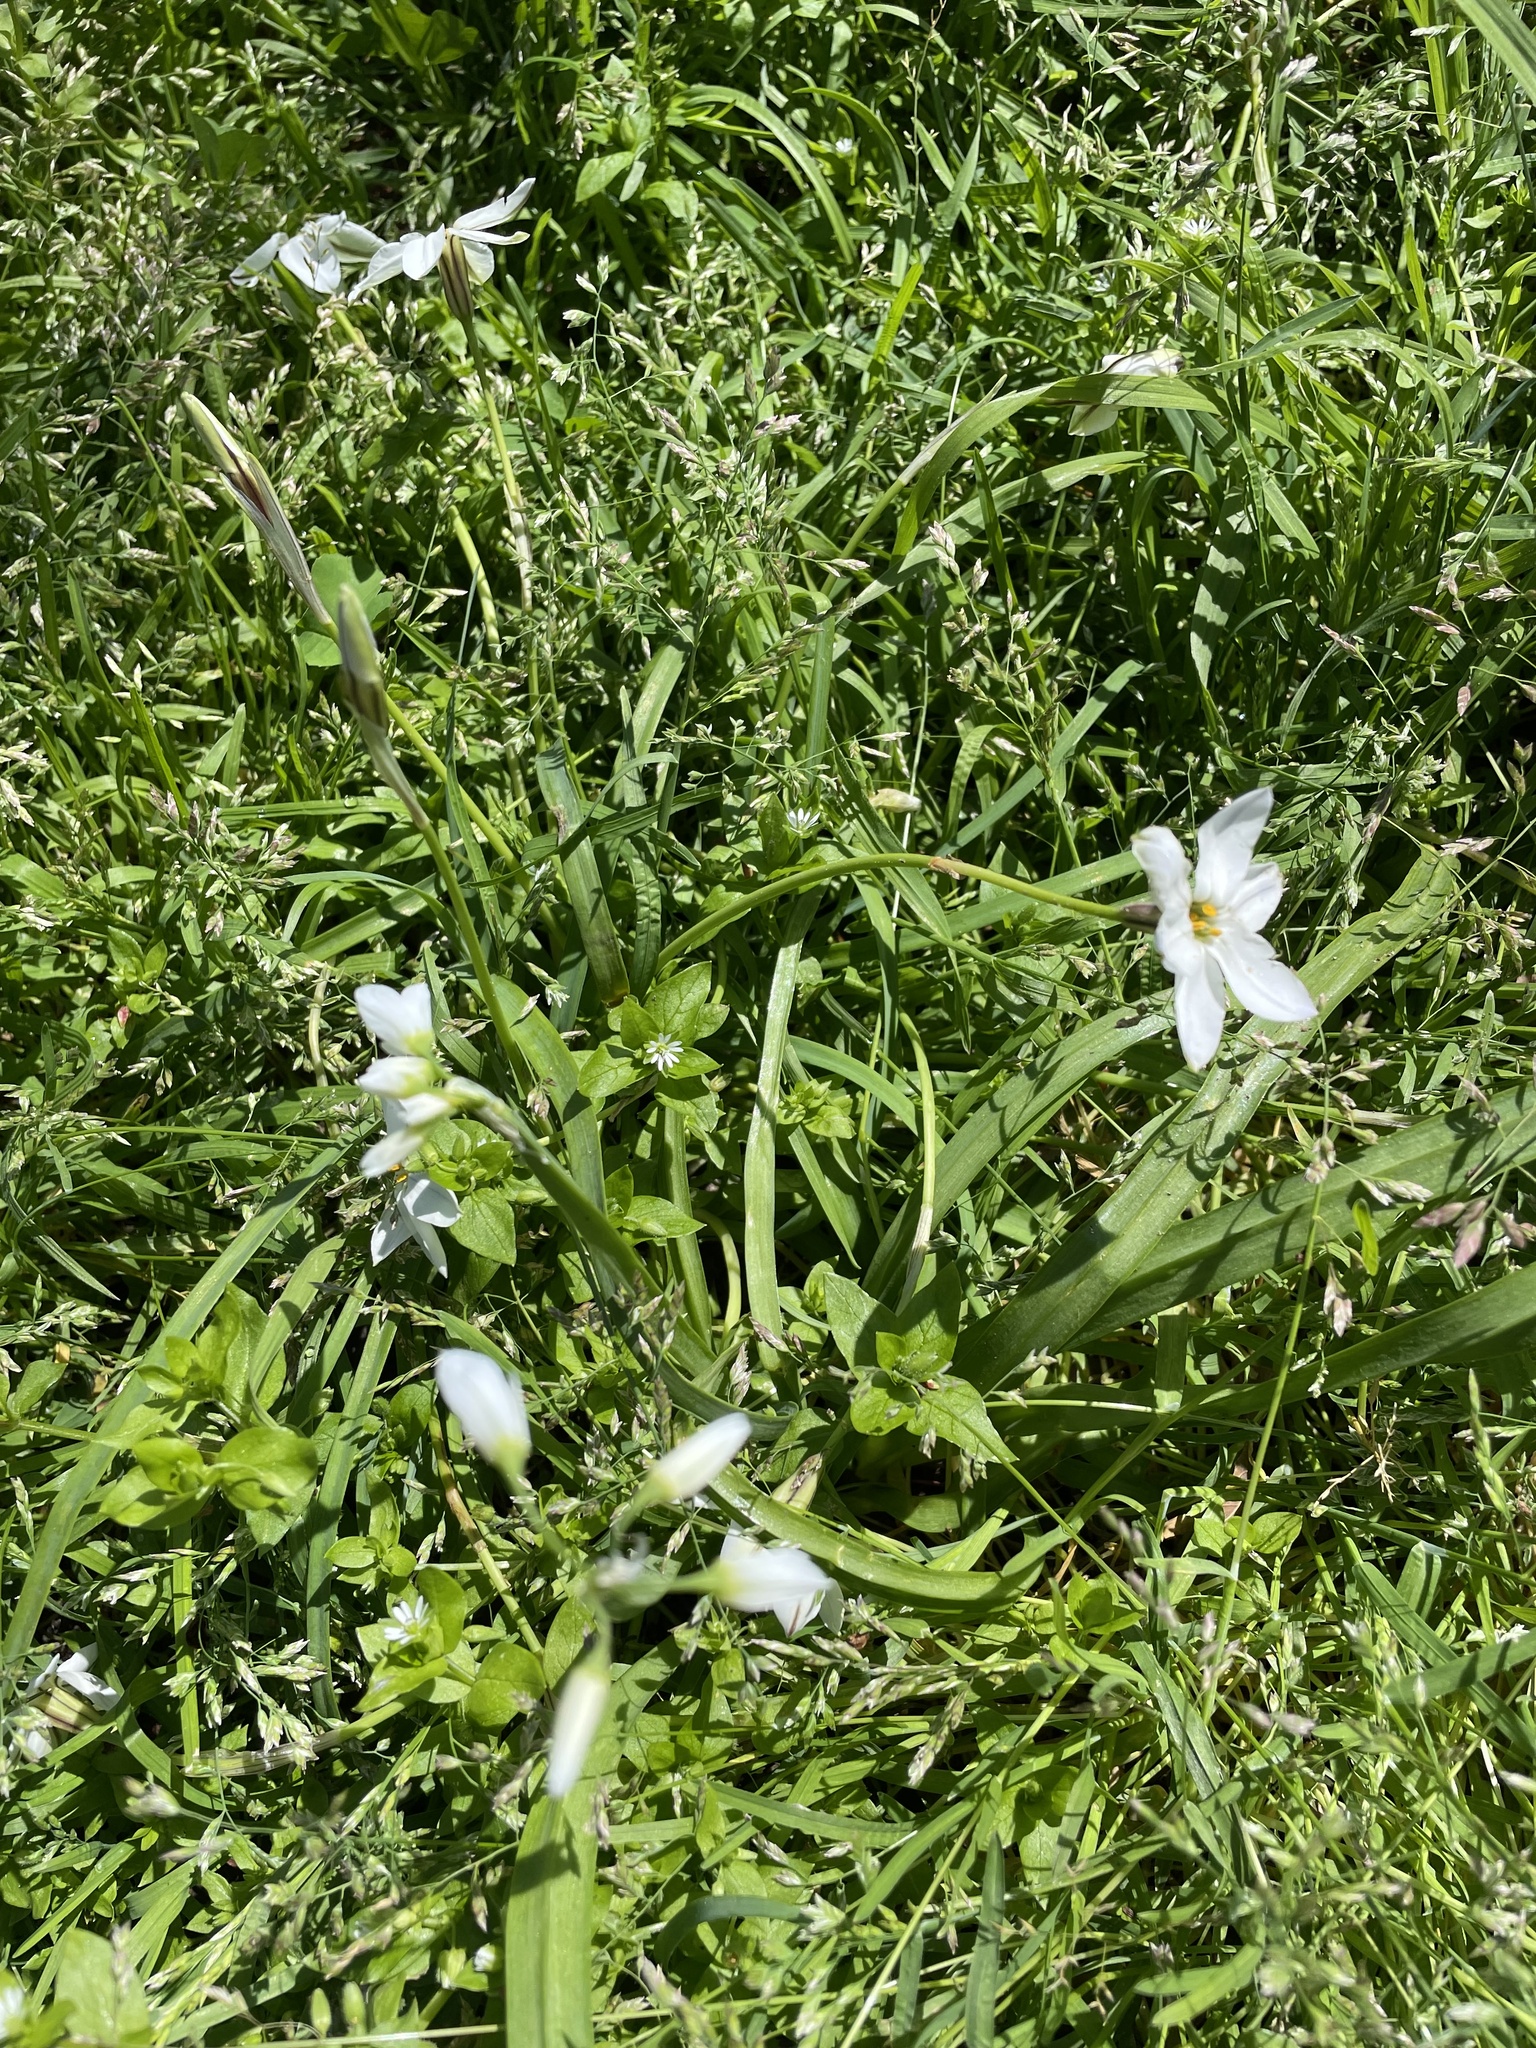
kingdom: Plantae
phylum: Tracheophyta
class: Liliopsida
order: Asparagales
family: Amaryllidaceae
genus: Ipheion
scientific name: Ipheion uniflorum
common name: Spring starflower
